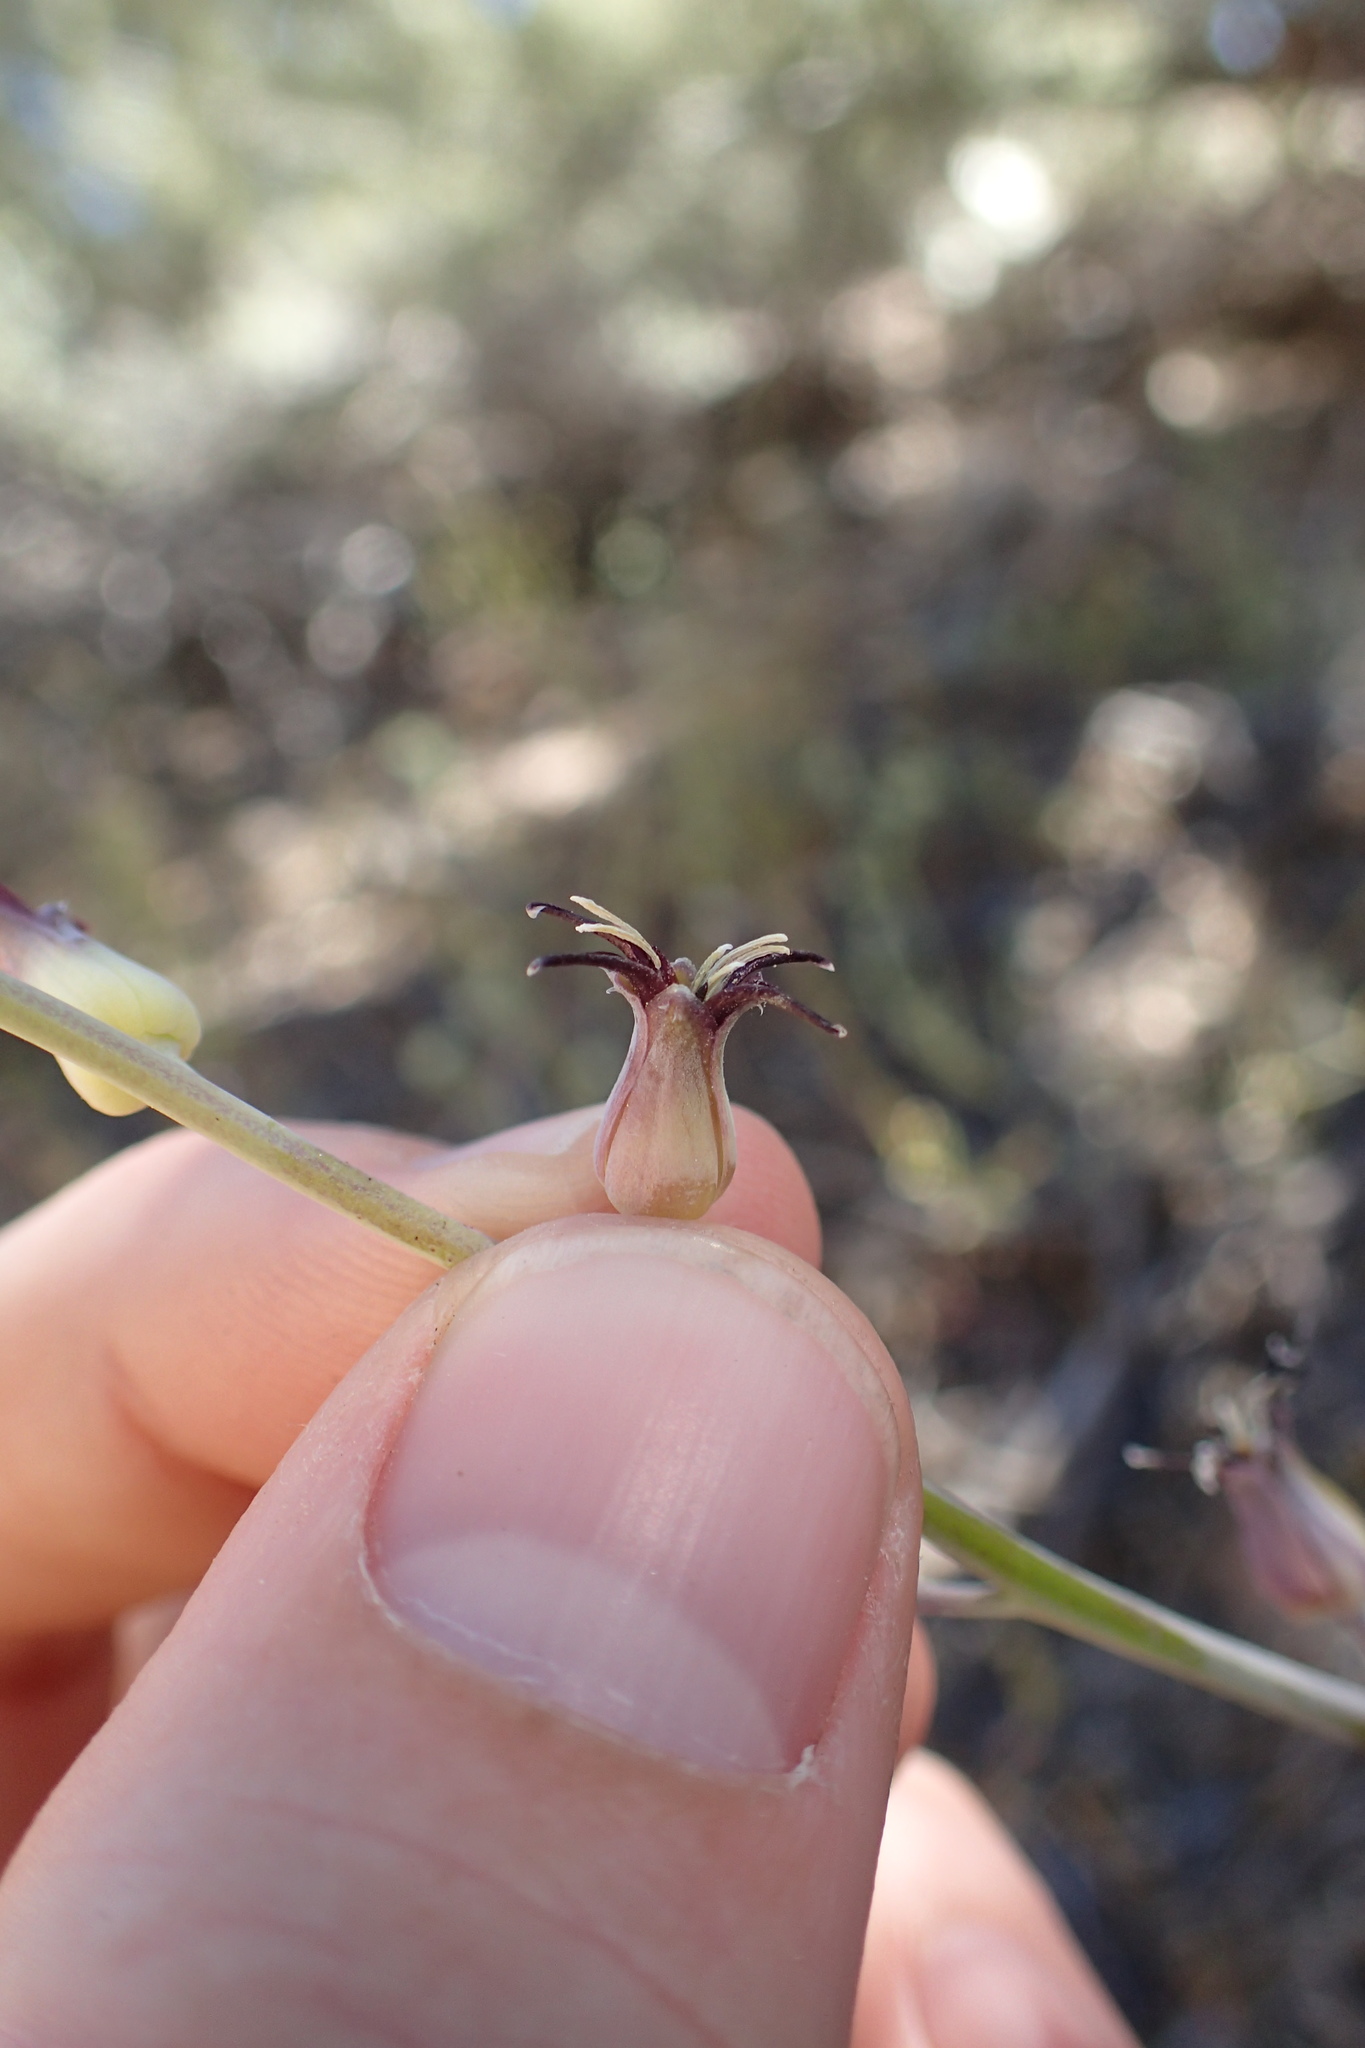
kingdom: Plantae
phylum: Tracheophyta
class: Magnoliopsida
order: Brassicales
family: Brassicaceae
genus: Streptanthus
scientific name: Streptanthus cordatus
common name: Heart-leaf jewel-flower
